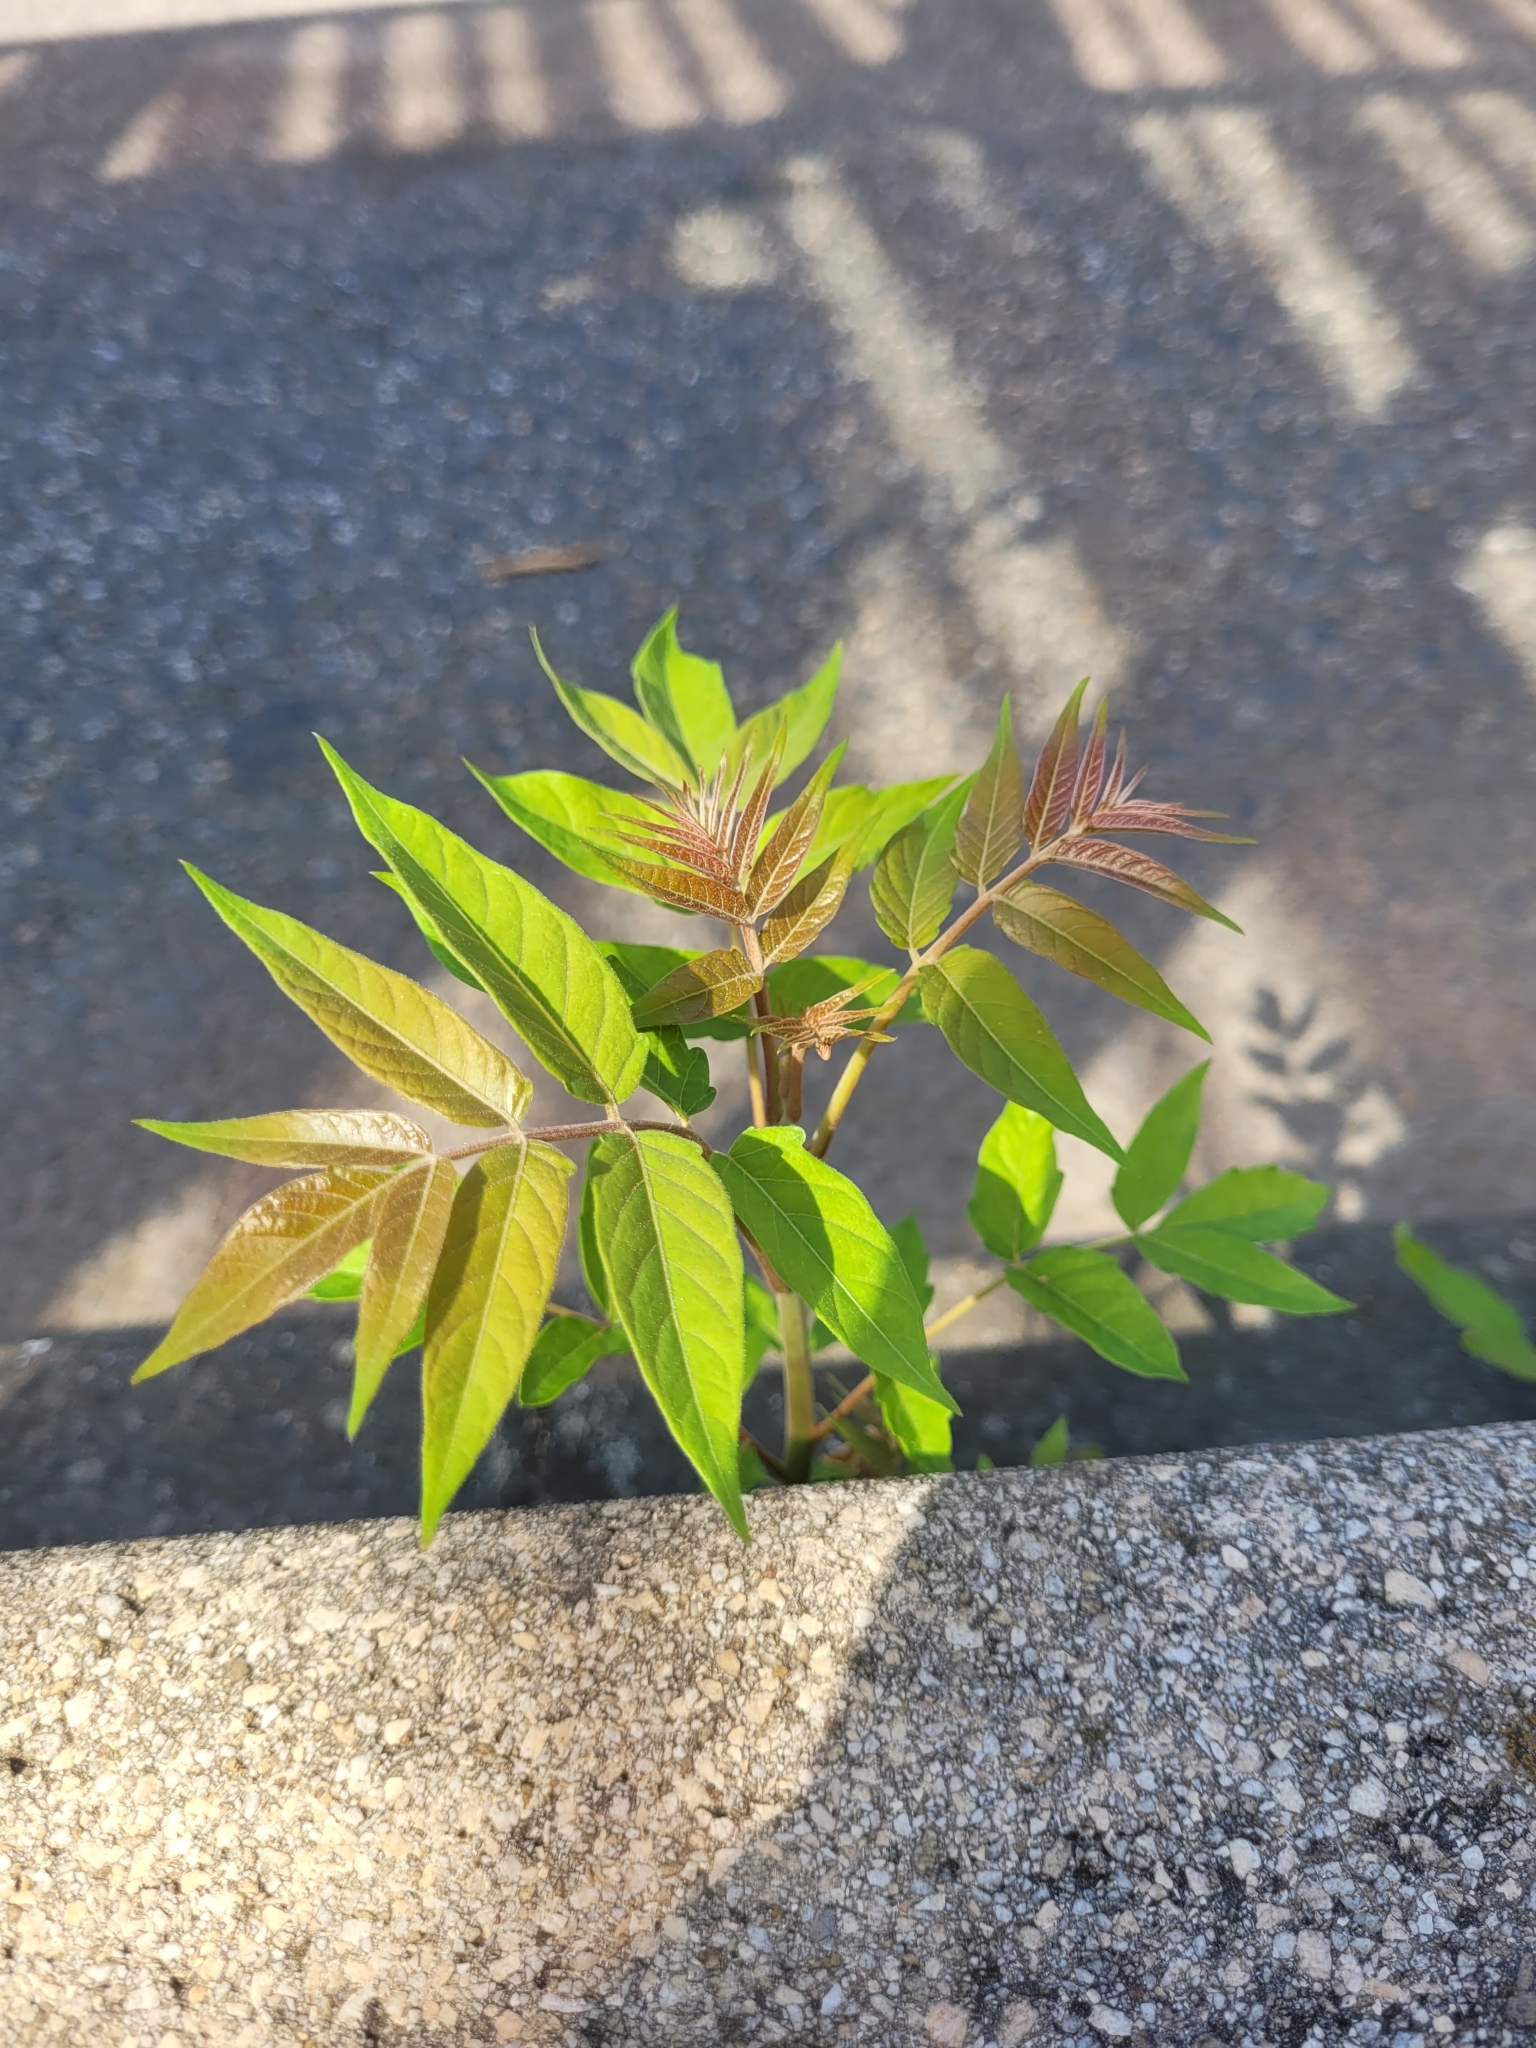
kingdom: Plantae
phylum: Tracheophyta
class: Magnoliopsida
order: Sapindales
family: Simaroubaceae
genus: Ailanthus
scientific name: Ailanthus altissima
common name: Tree-of-heaven
